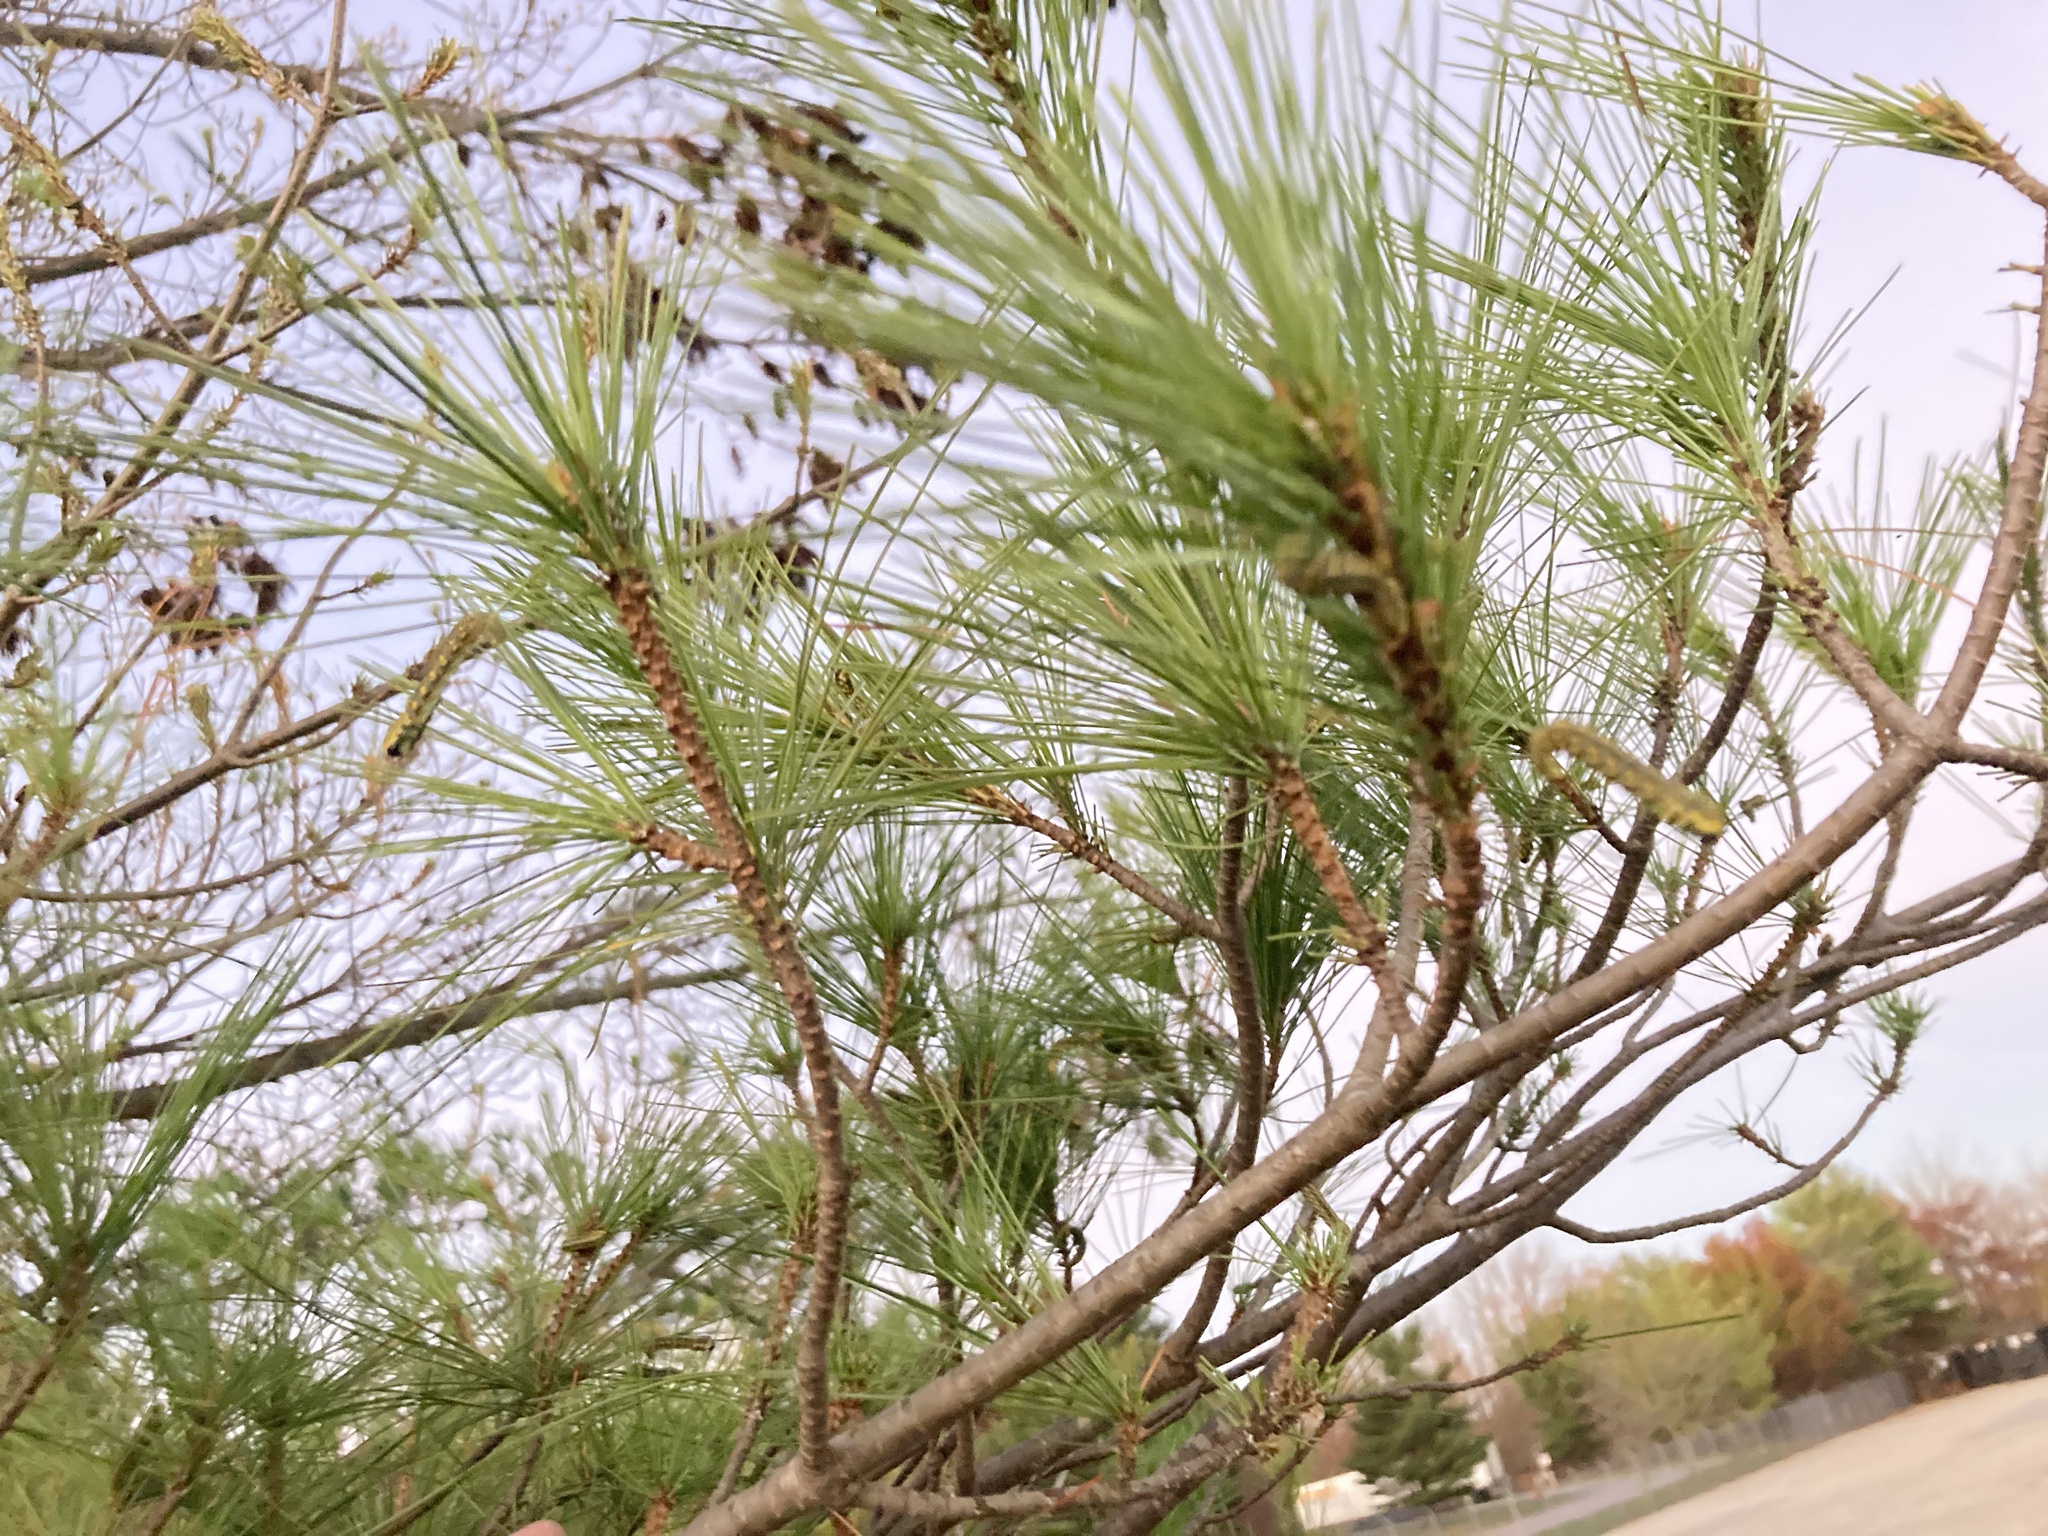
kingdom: Animalia
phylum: Arthropoda
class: Insecta
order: Hymenoptera
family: Diprionidae
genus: Diprion
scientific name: Diprion similis
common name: Pine sawfly
